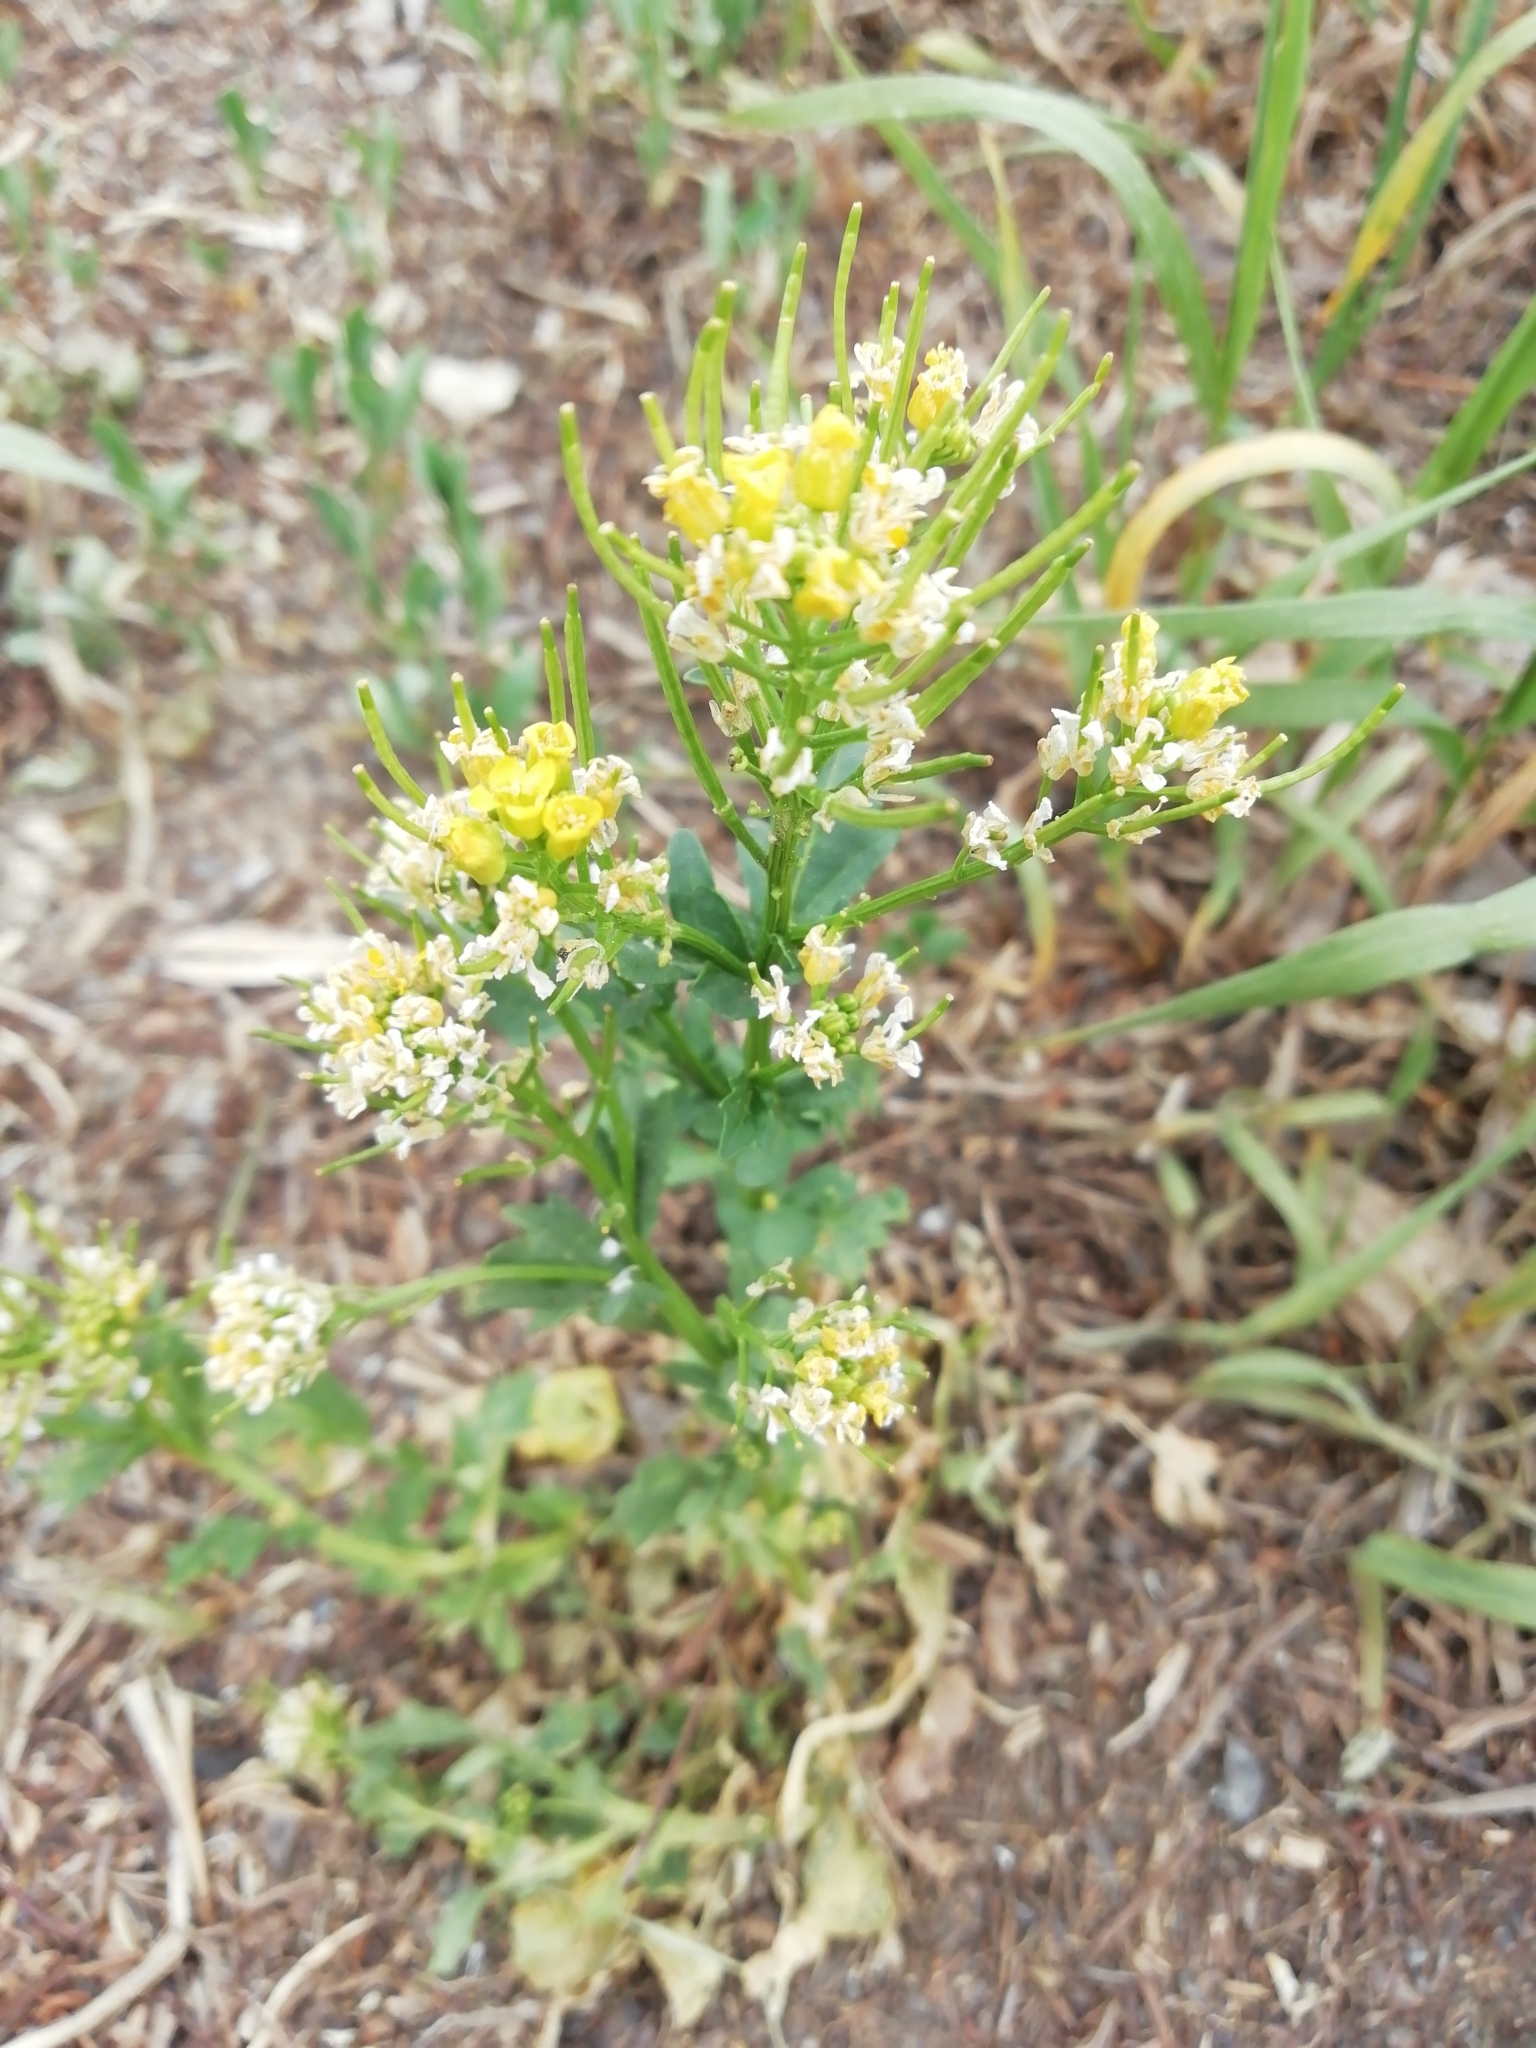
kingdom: Plantae
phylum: Tracheophyta
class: Magnoliopsida
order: Brassicales
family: Brassicaceae
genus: Barbarea
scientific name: Barbarea vulgaris
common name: Cressy-greens
